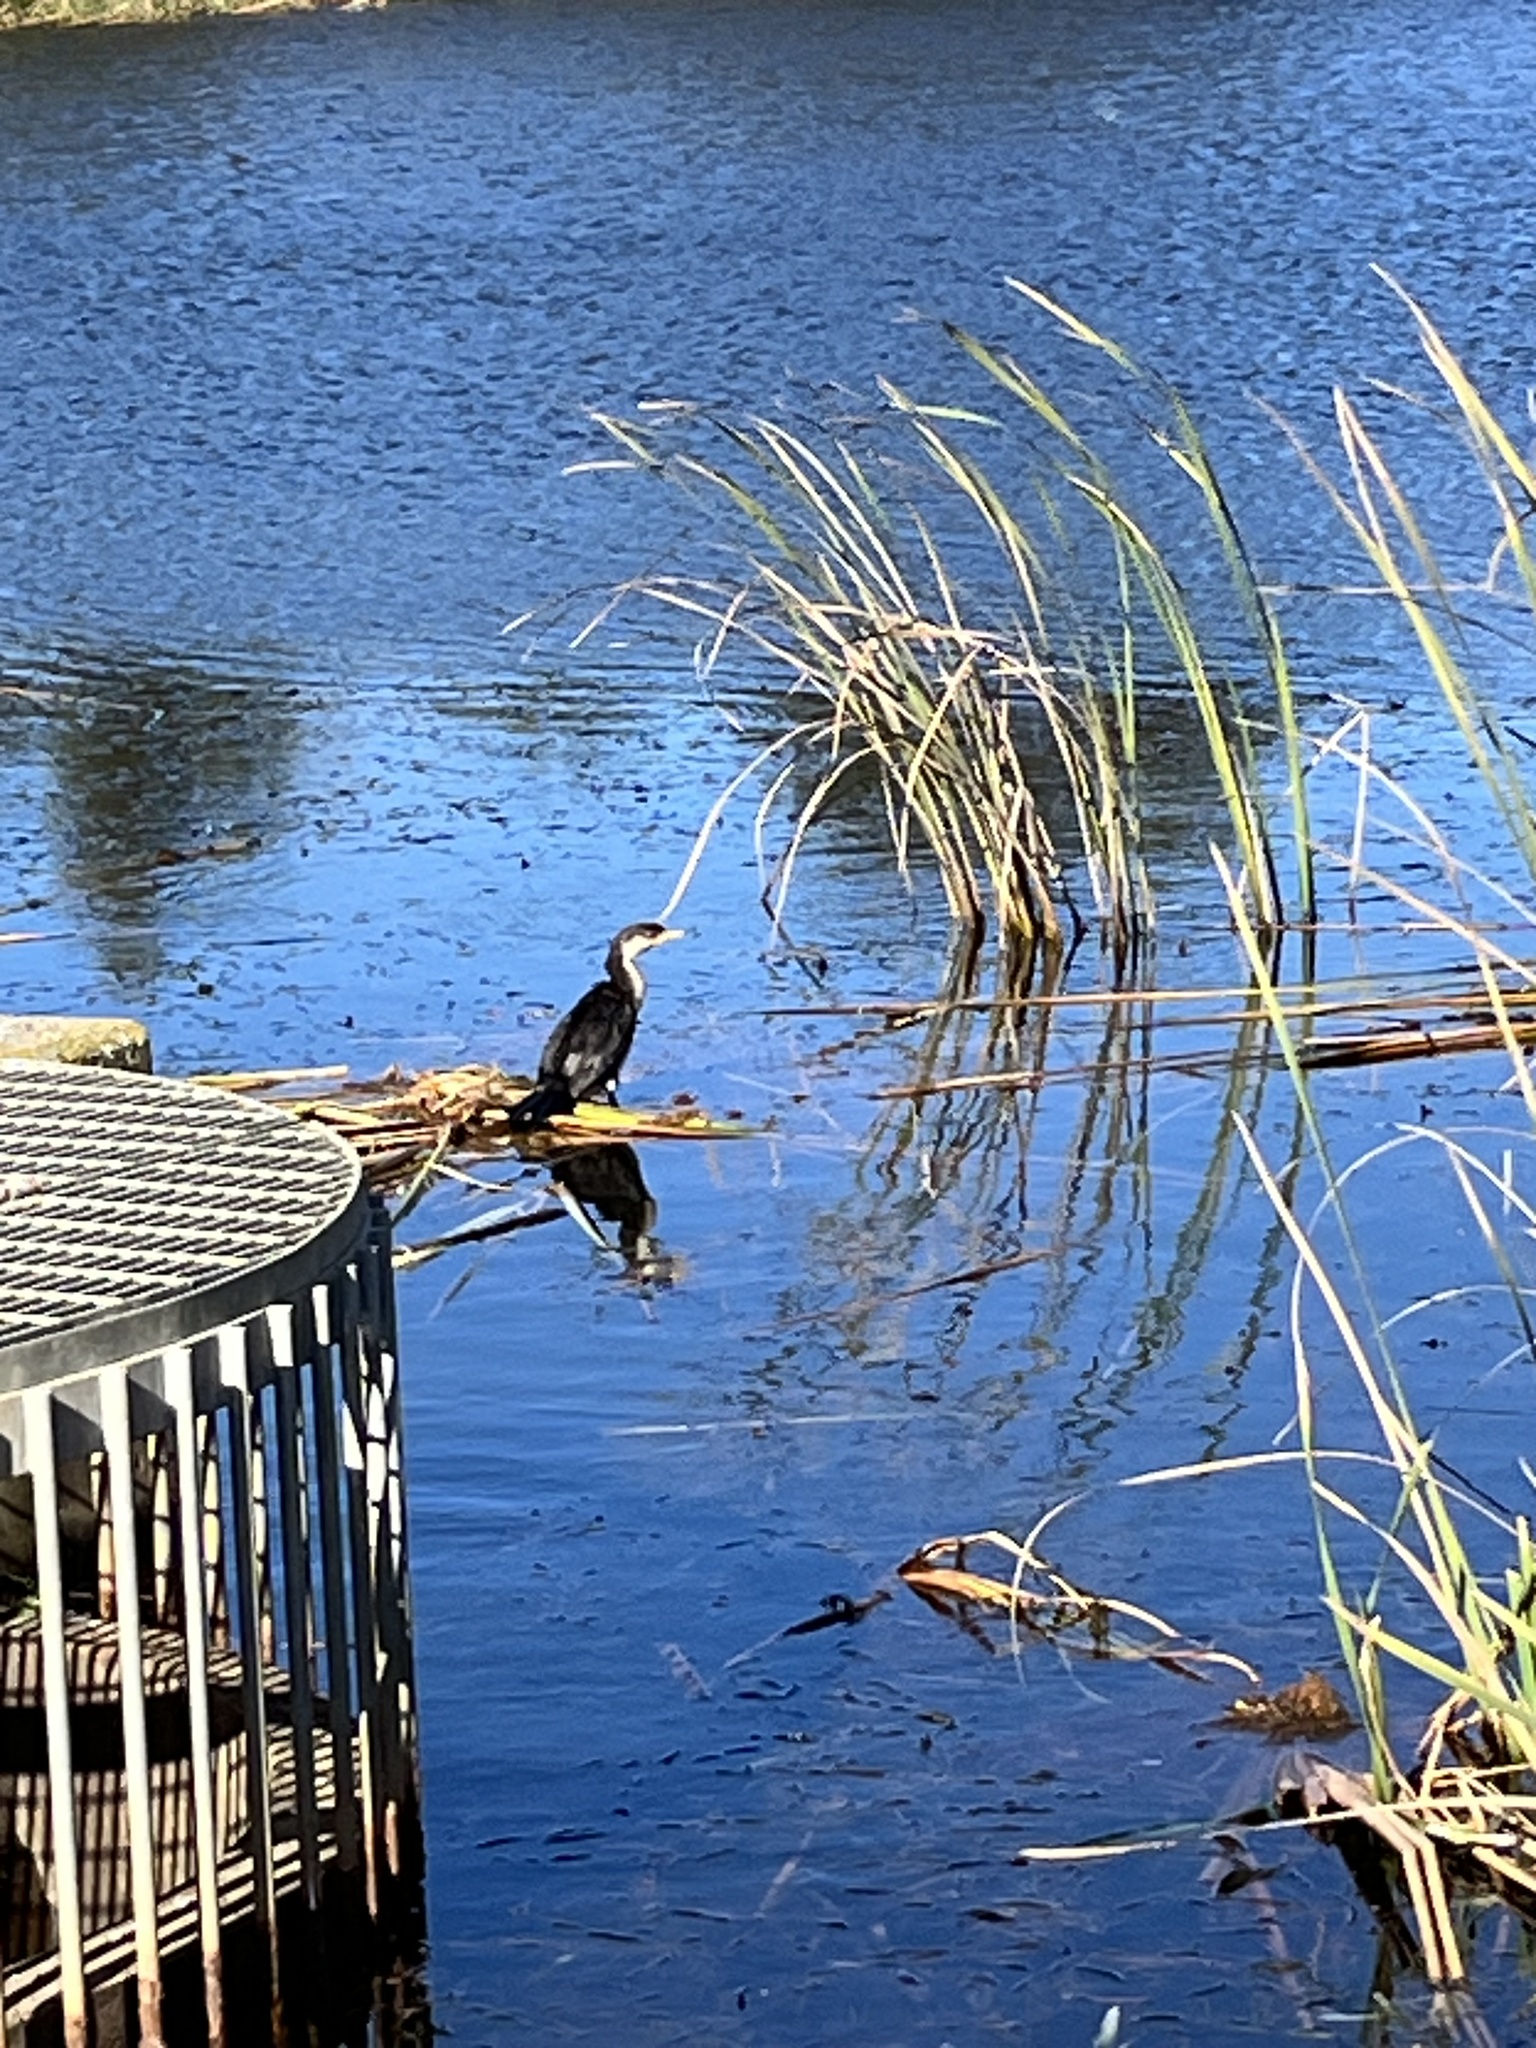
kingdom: Animalia
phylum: Chordata
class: Aves
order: Suliformes
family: Phalacrocoracidae
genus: Microcarbo
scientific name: Microcarbo melanoleucos
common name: Little pied cormorant
